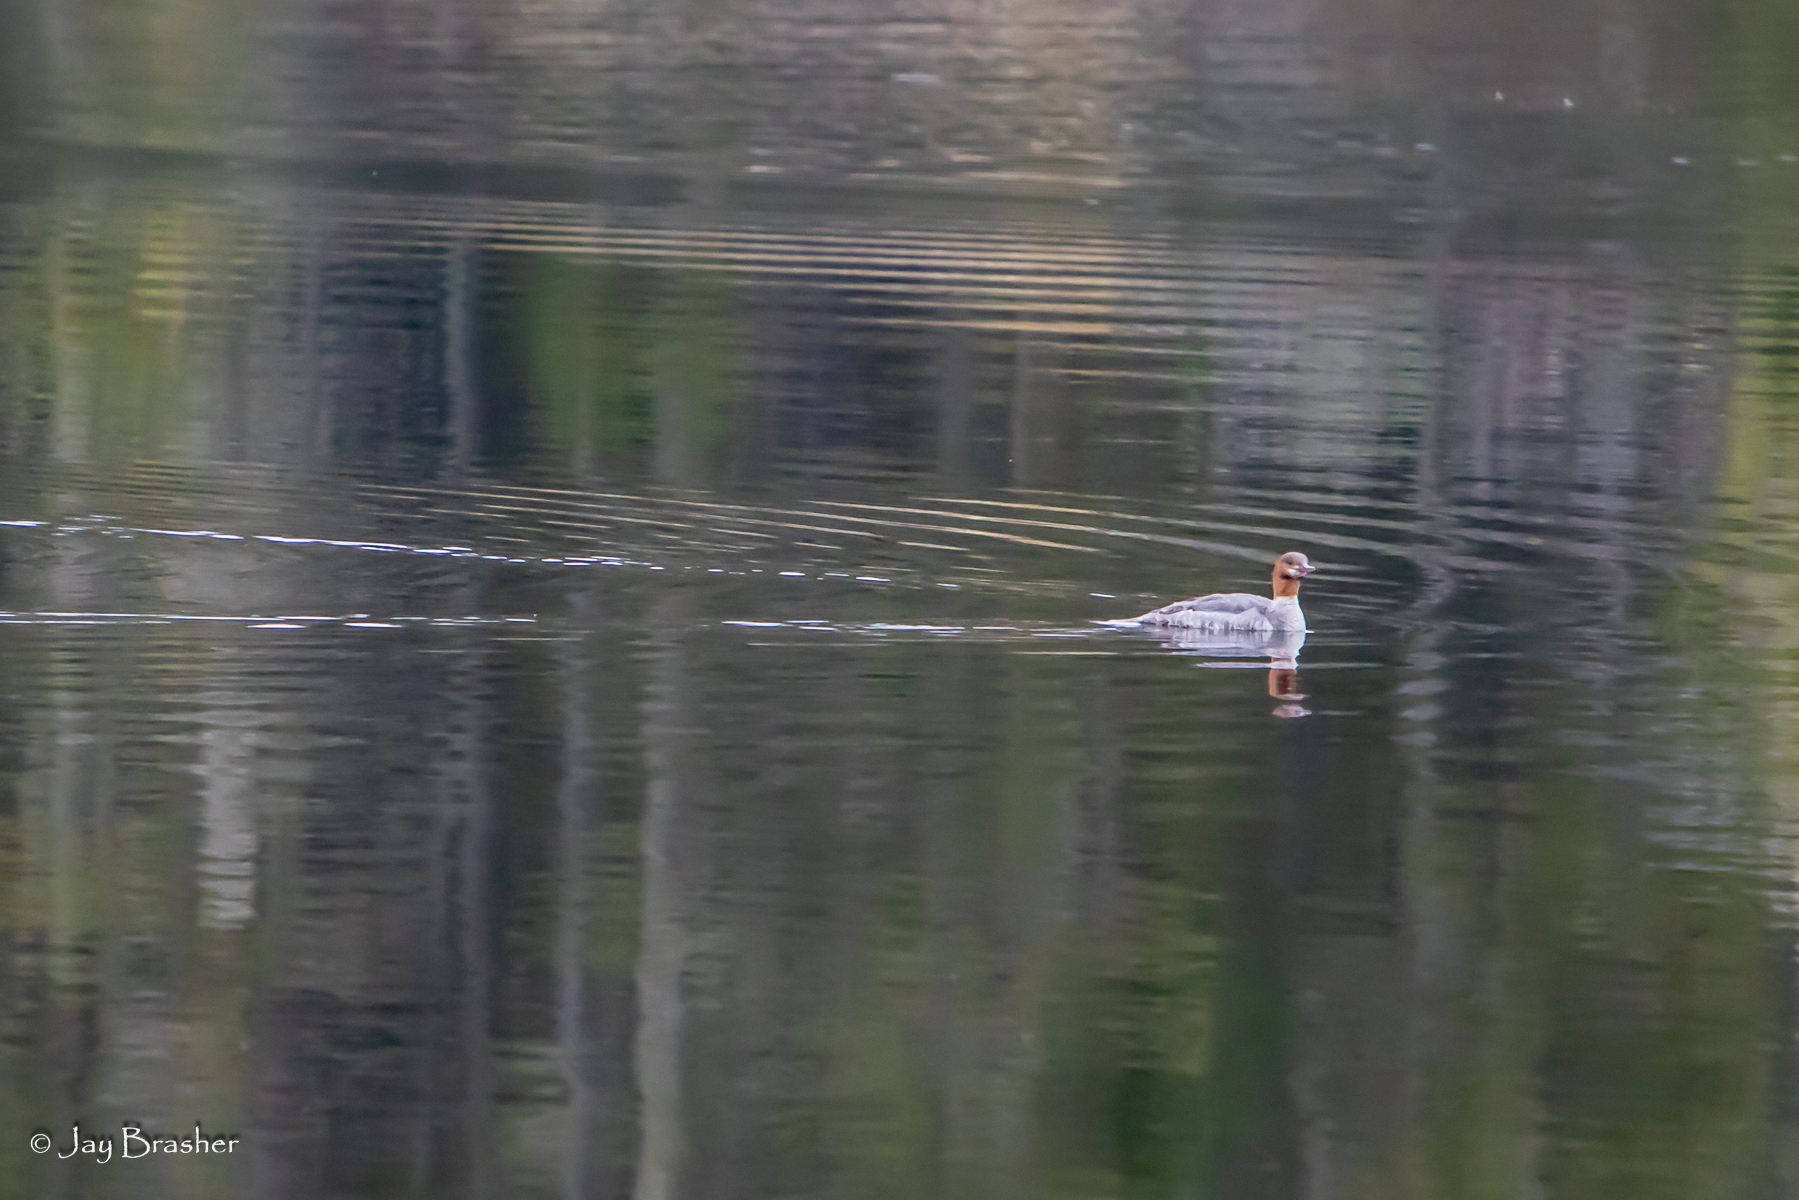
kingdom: Animalia
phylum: Chordata
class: Aves
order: Anseriformes
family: Anatidae
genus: Mergus
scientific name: Mergus merganser
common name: Common merganser
